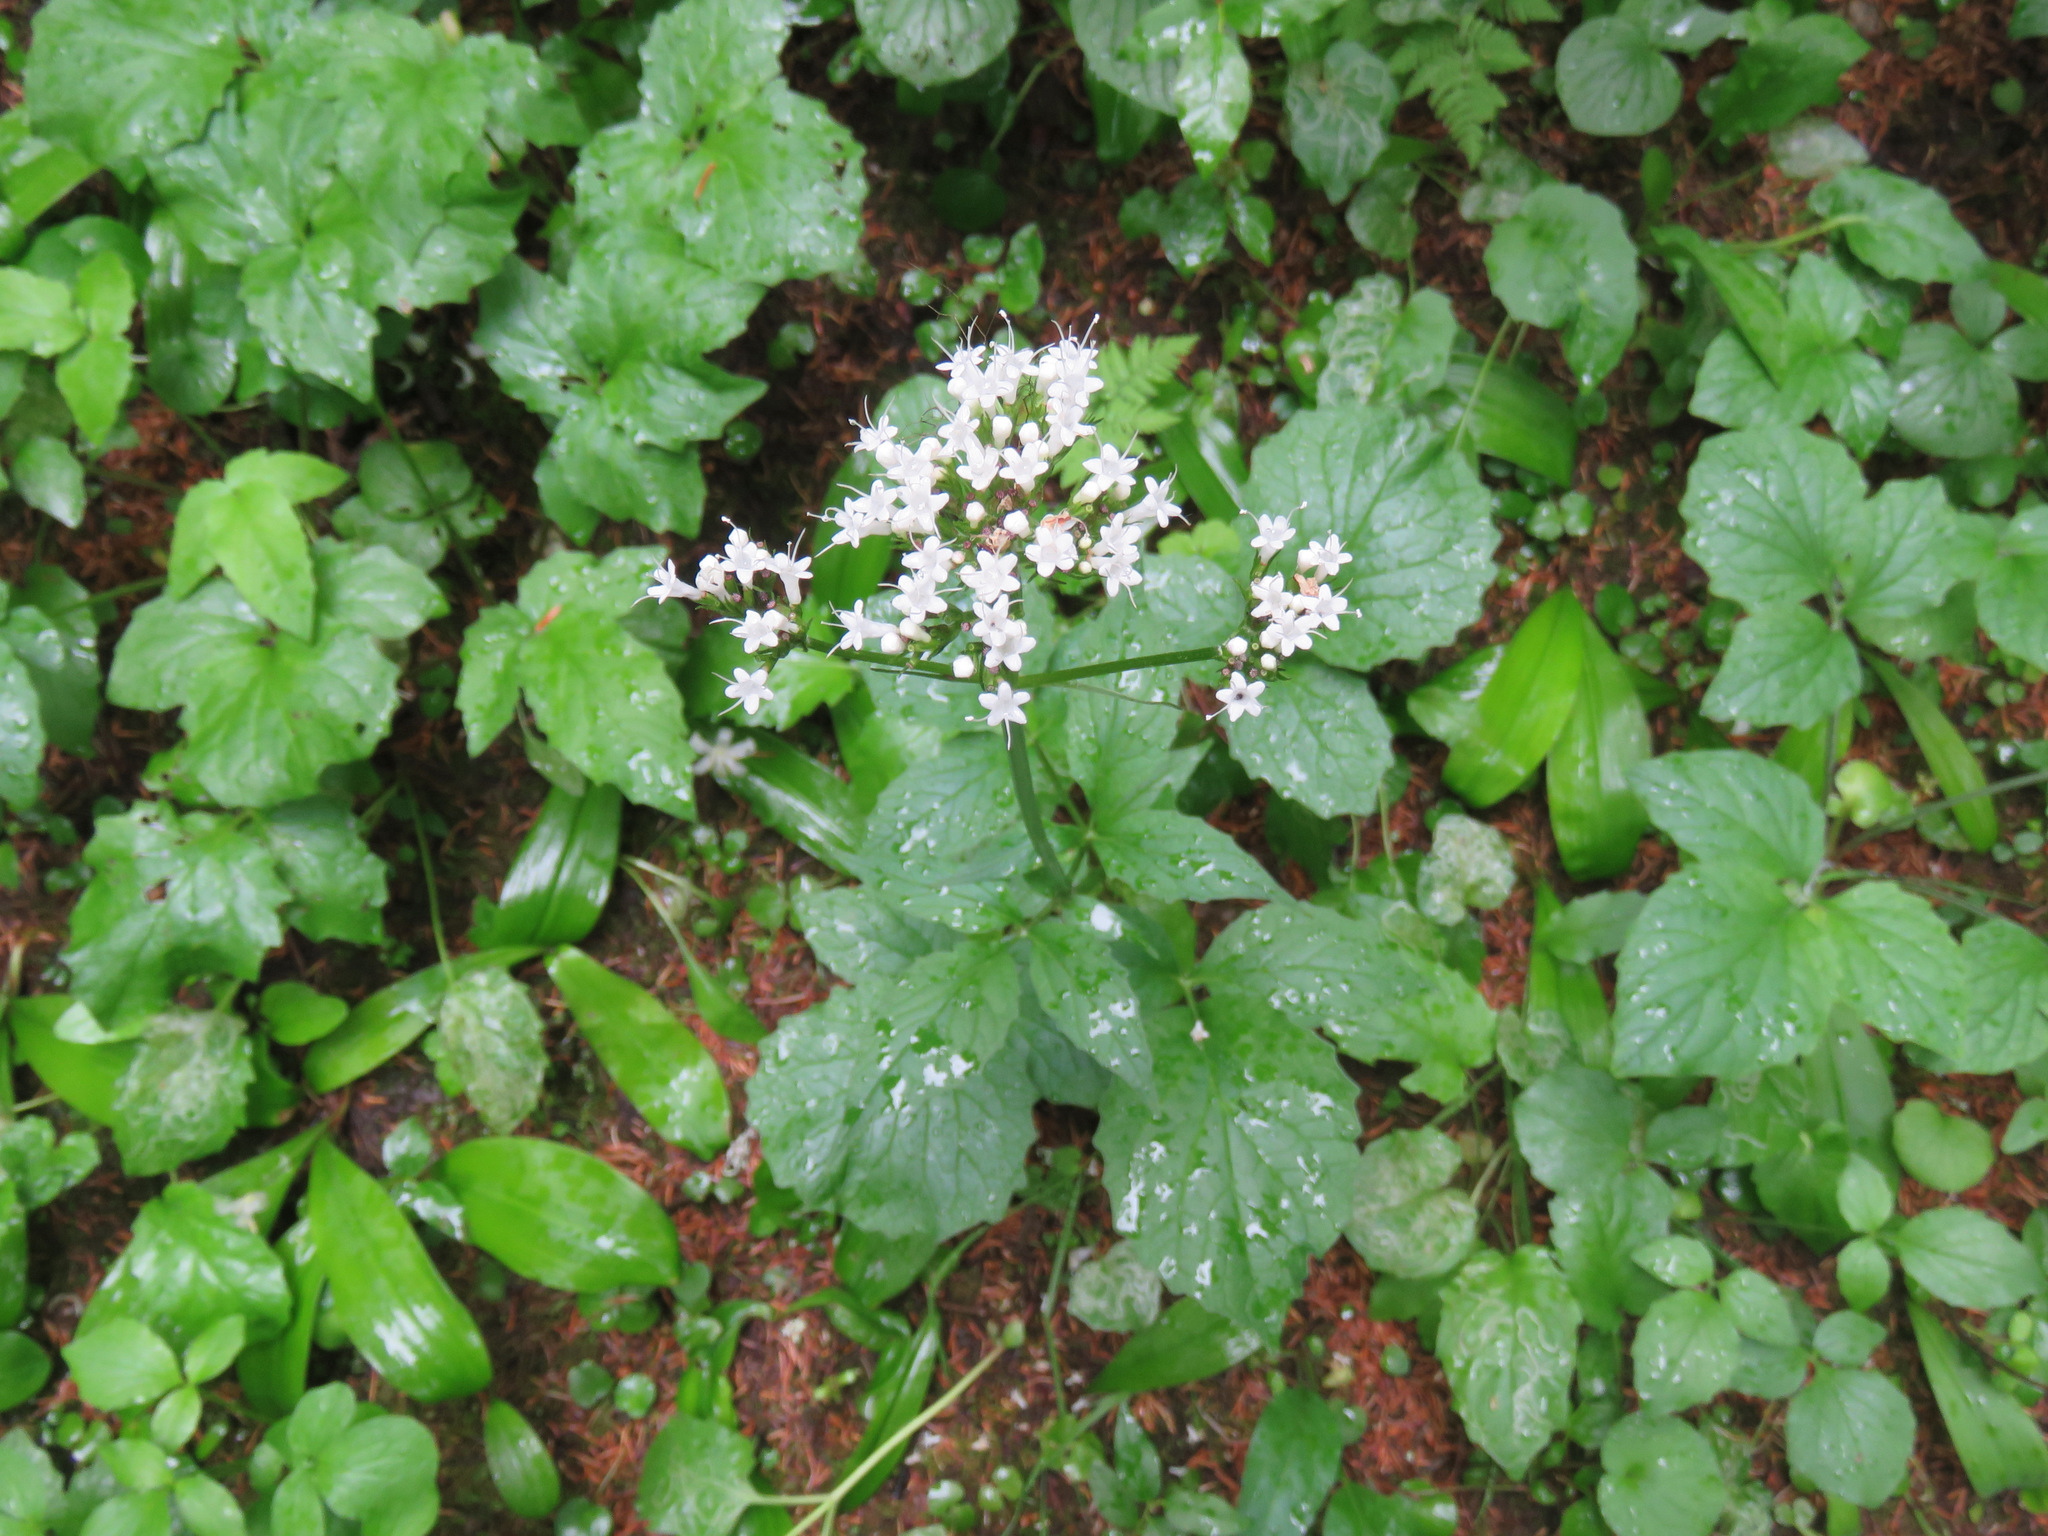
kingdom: Plantae
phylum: Tracheophyta
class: Magnoliopsida
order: Dipsacales
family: Caprifoliaceae
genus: Valeriana
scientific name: Valeriana sitchensis
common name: Pacific valerian
